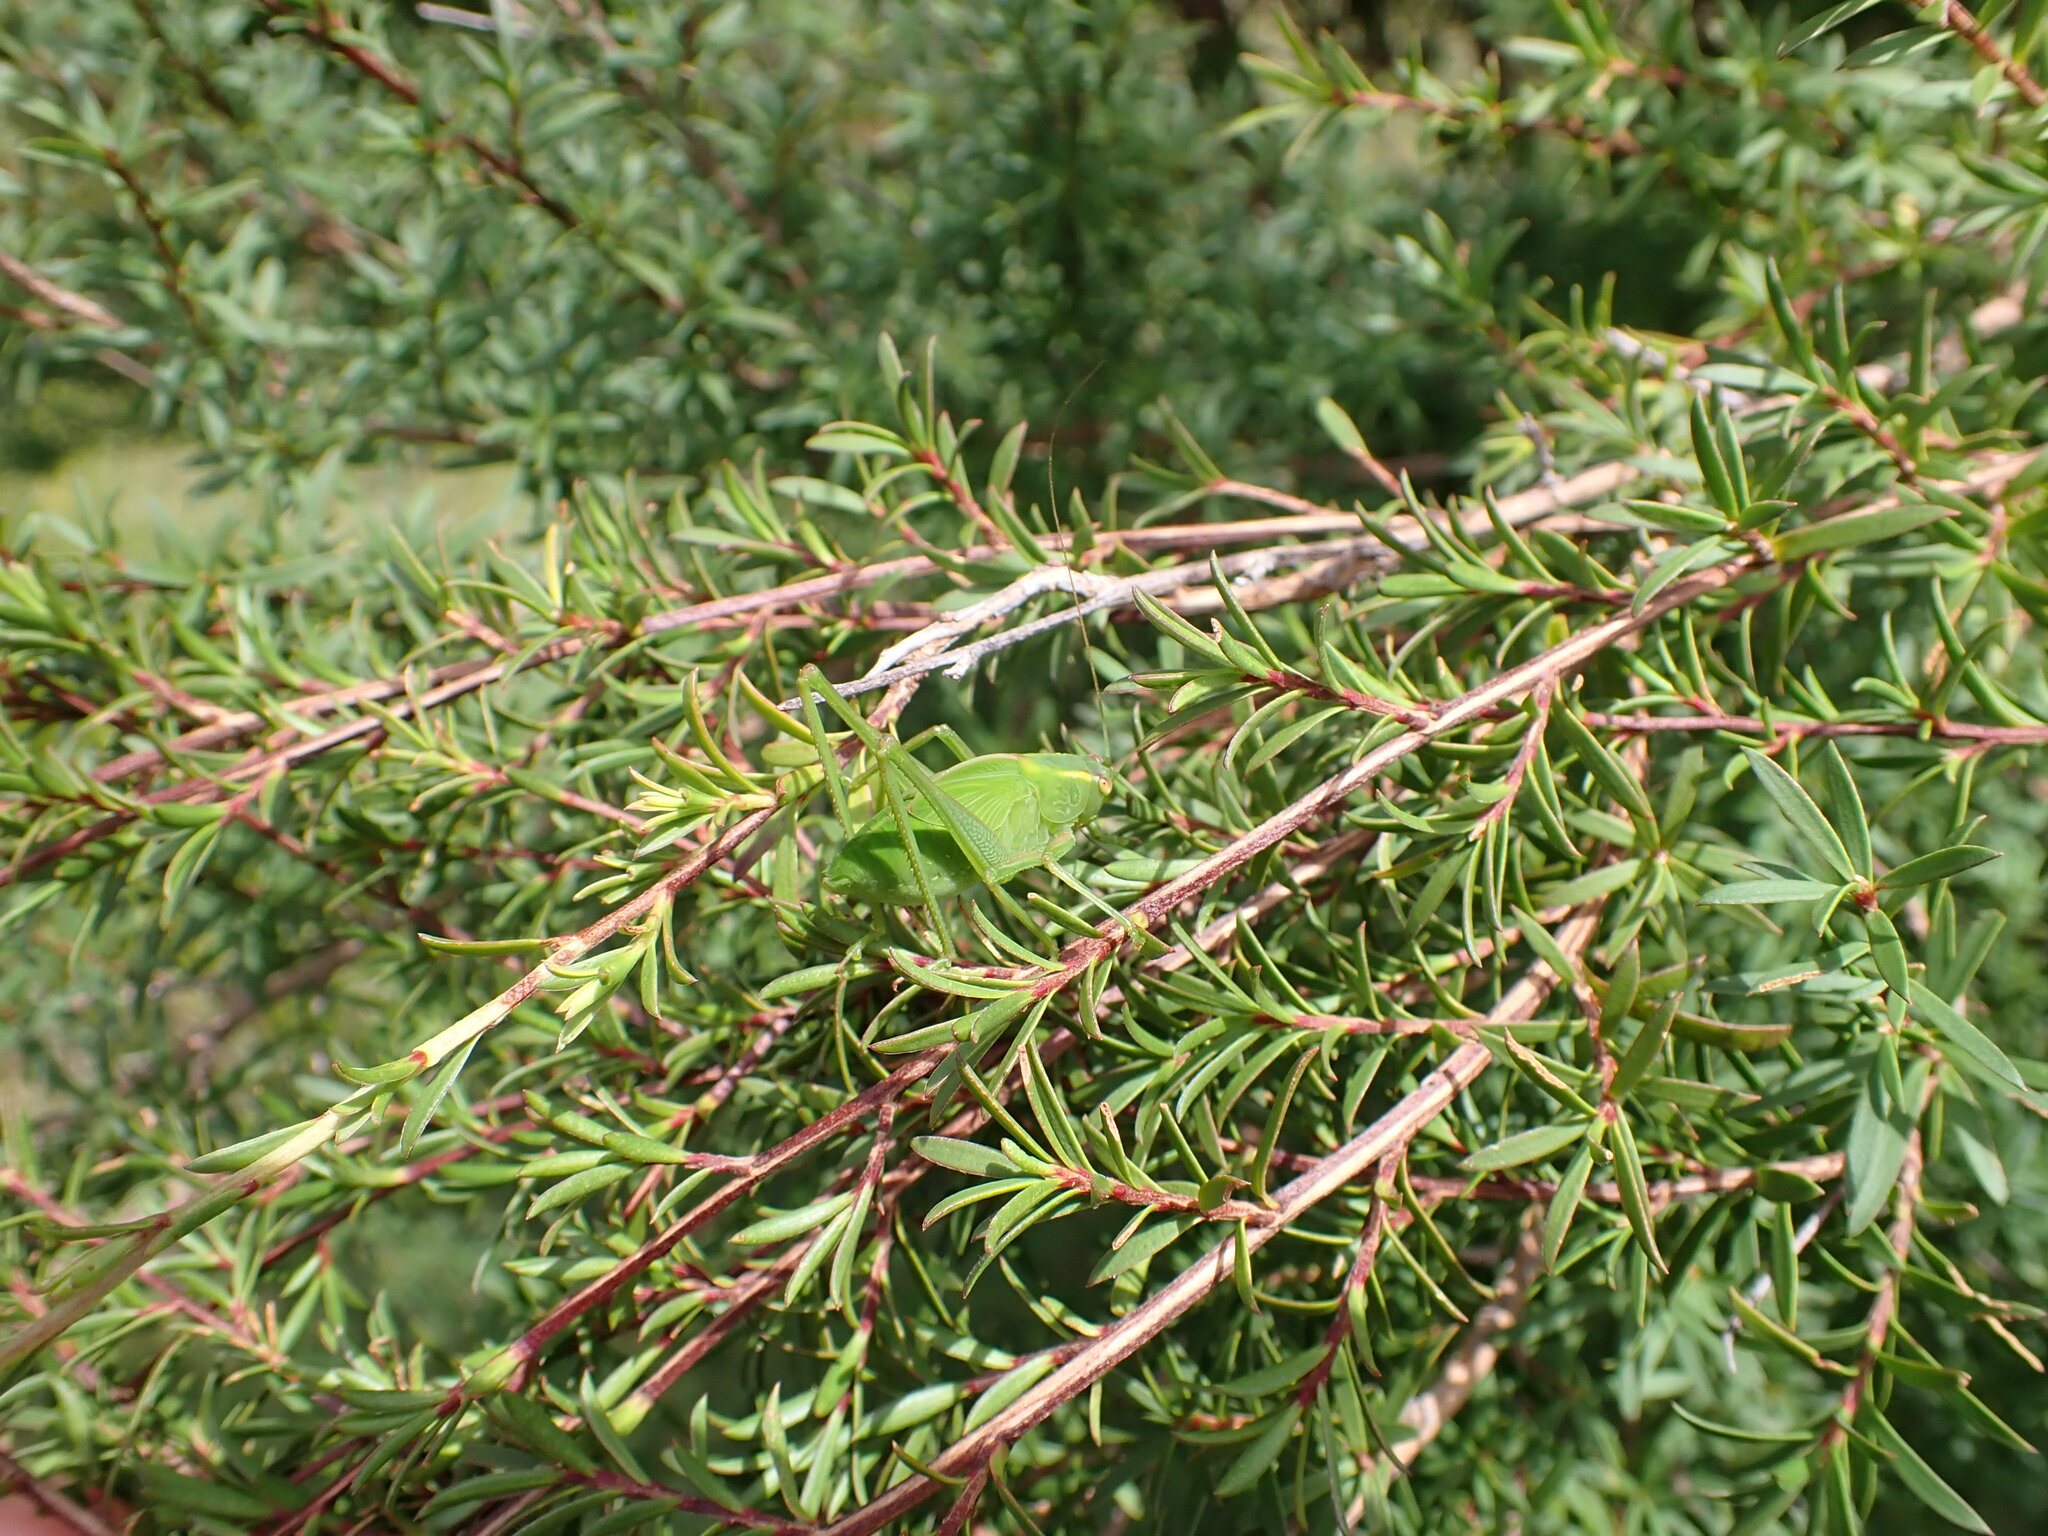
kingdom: Animalia
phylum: Arthropoda
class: Insecta
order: Orthoptera
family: Tettigoniidae
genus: Caedicia
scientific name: Caedicia simplex
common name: Common garden katydid
